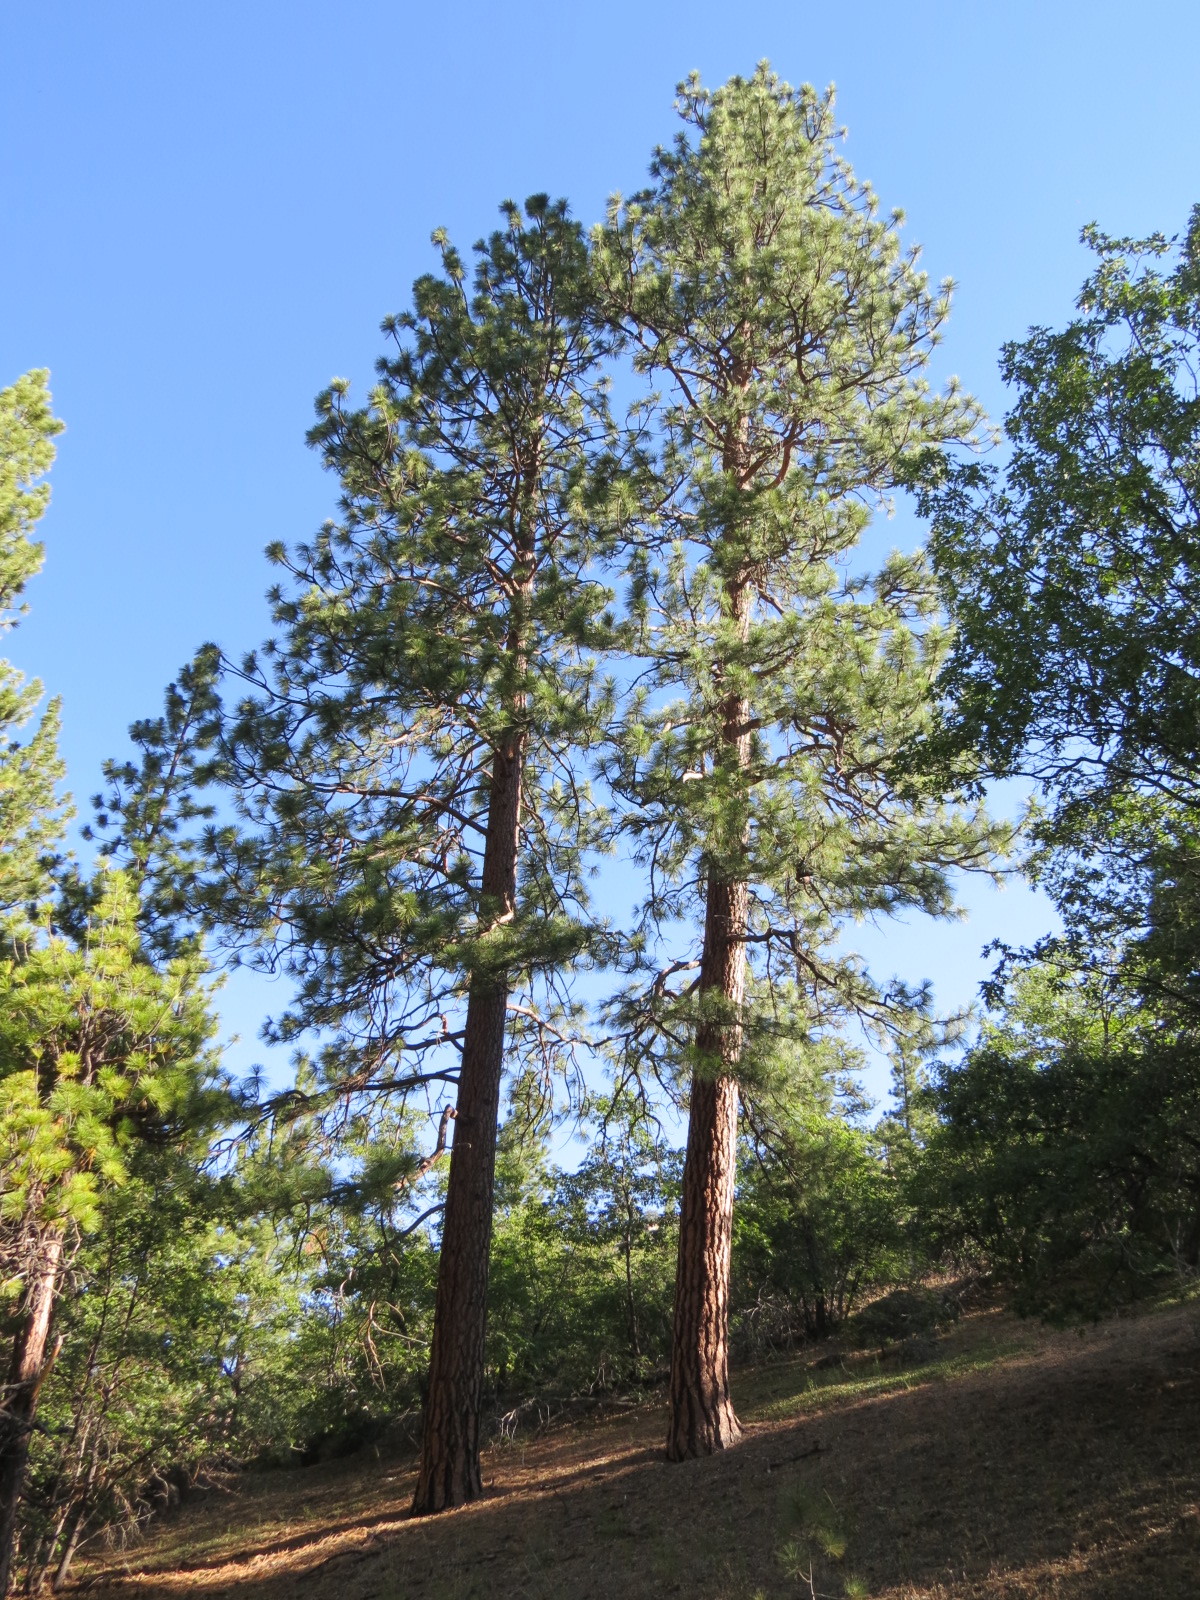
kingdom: Plantae
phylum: Tracheophyta
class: Pinopsida
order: Pinales
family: Pinaceae
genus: Pinus
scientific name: Pinus ponderosa
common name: Western yellow-pine
